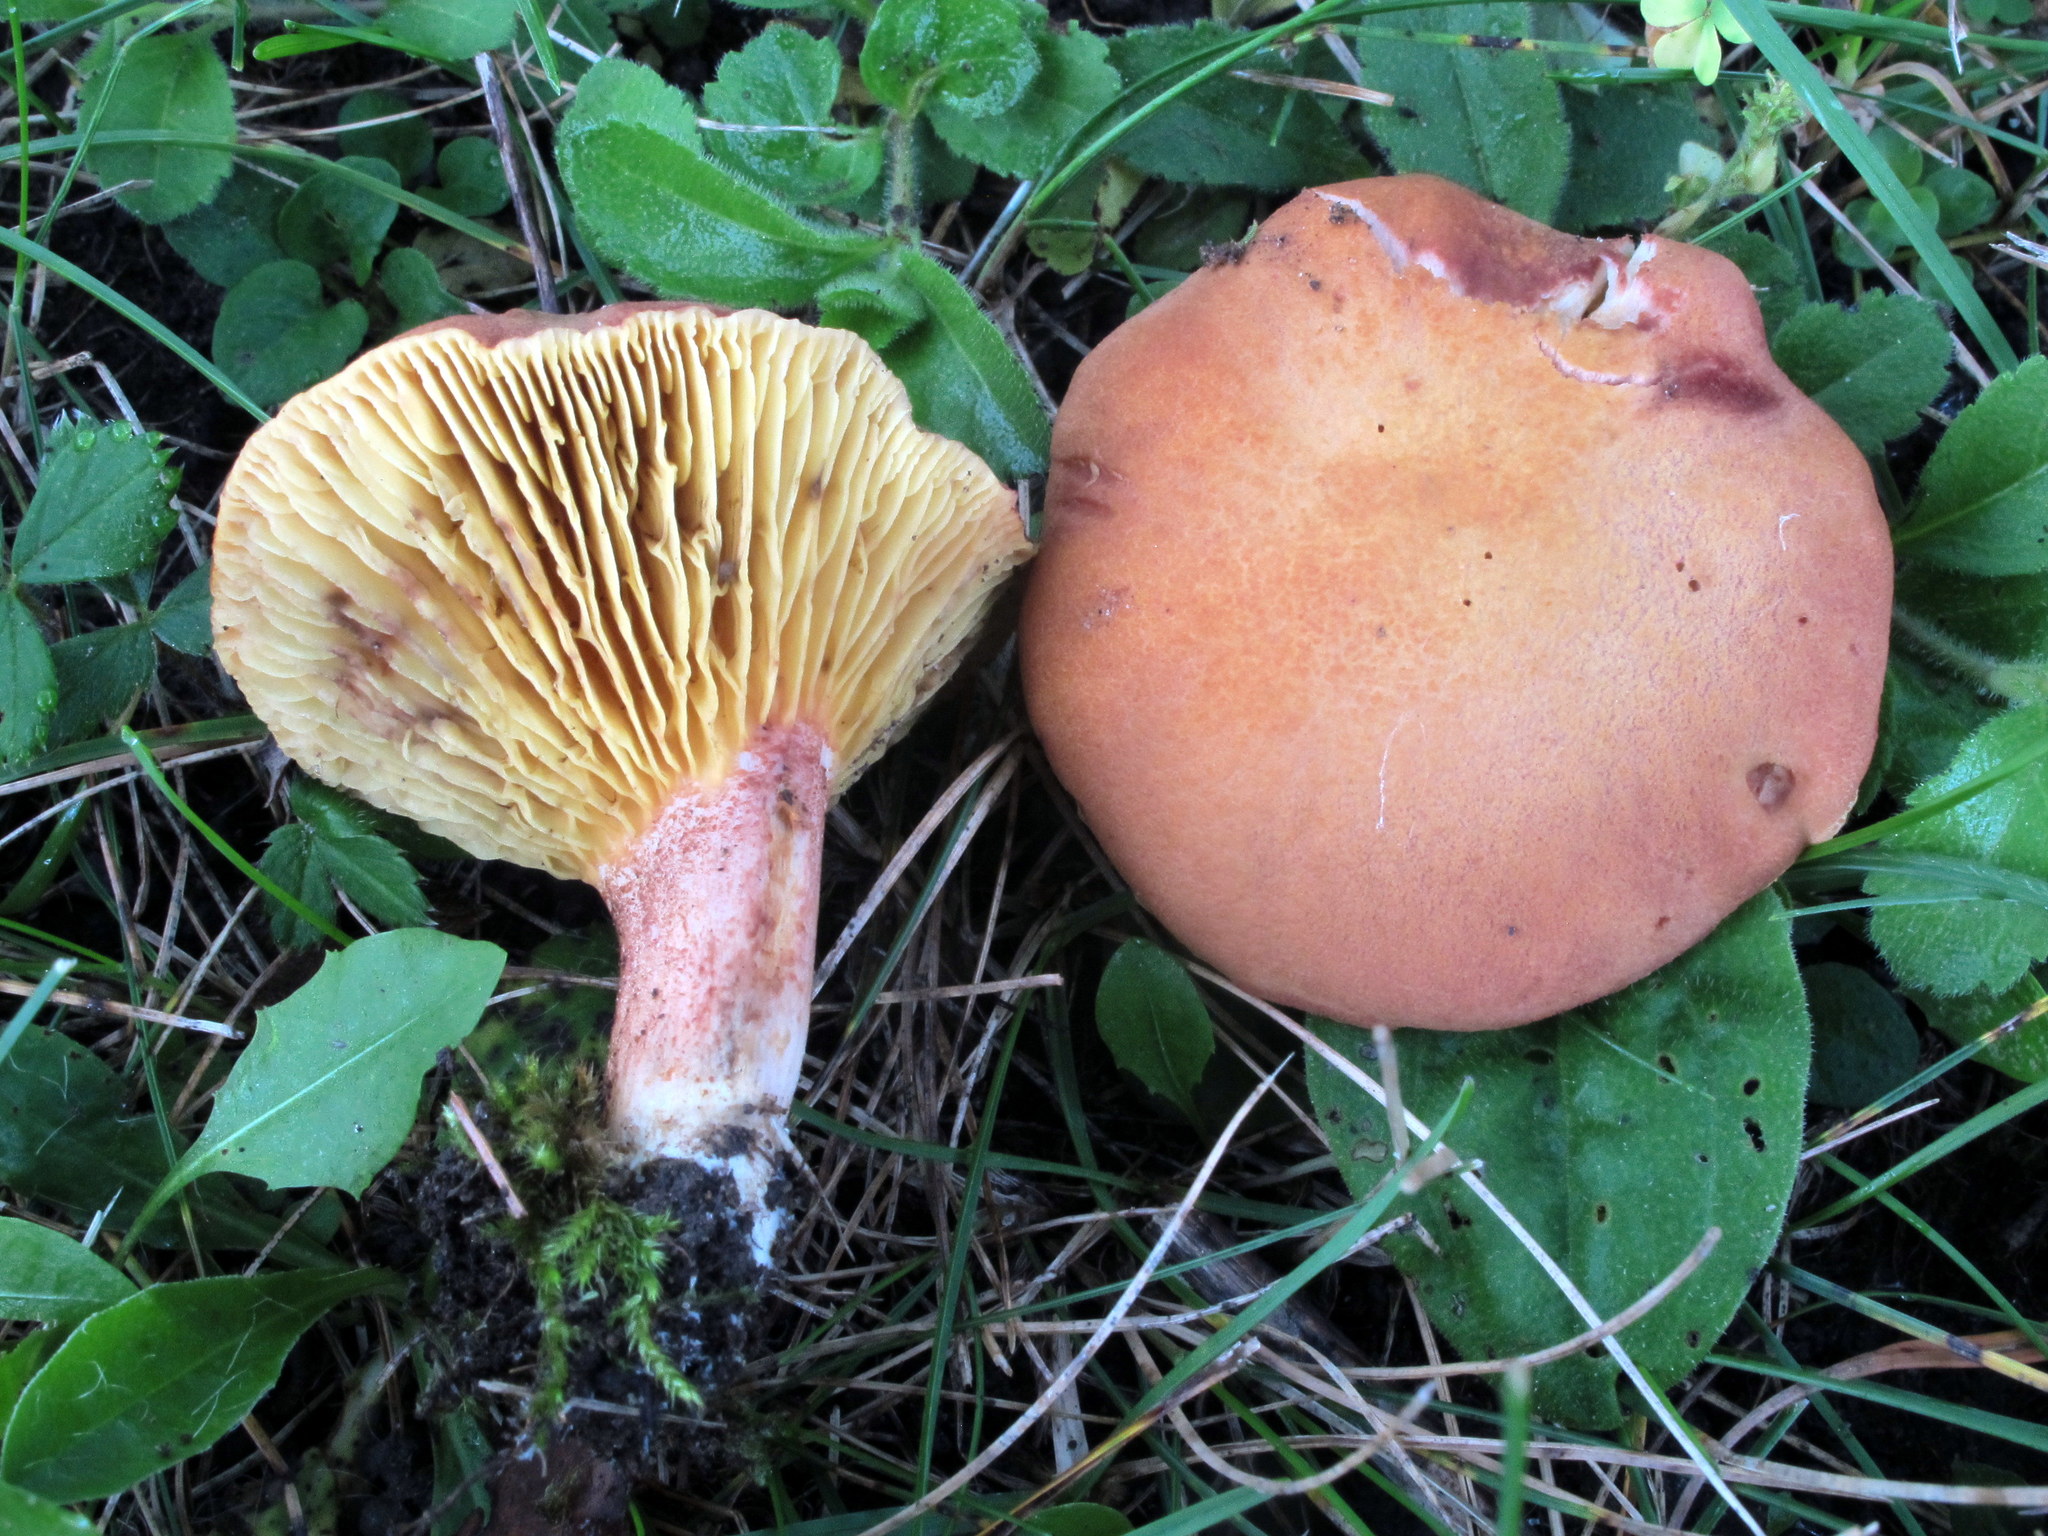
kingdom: Fungi
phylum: Basidiomycota
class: Agaricomycetes
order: Boletales
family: Boletaceae
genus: Phylloporus
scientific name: Phylloporus leucomycelinus
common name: Gilled bolete
